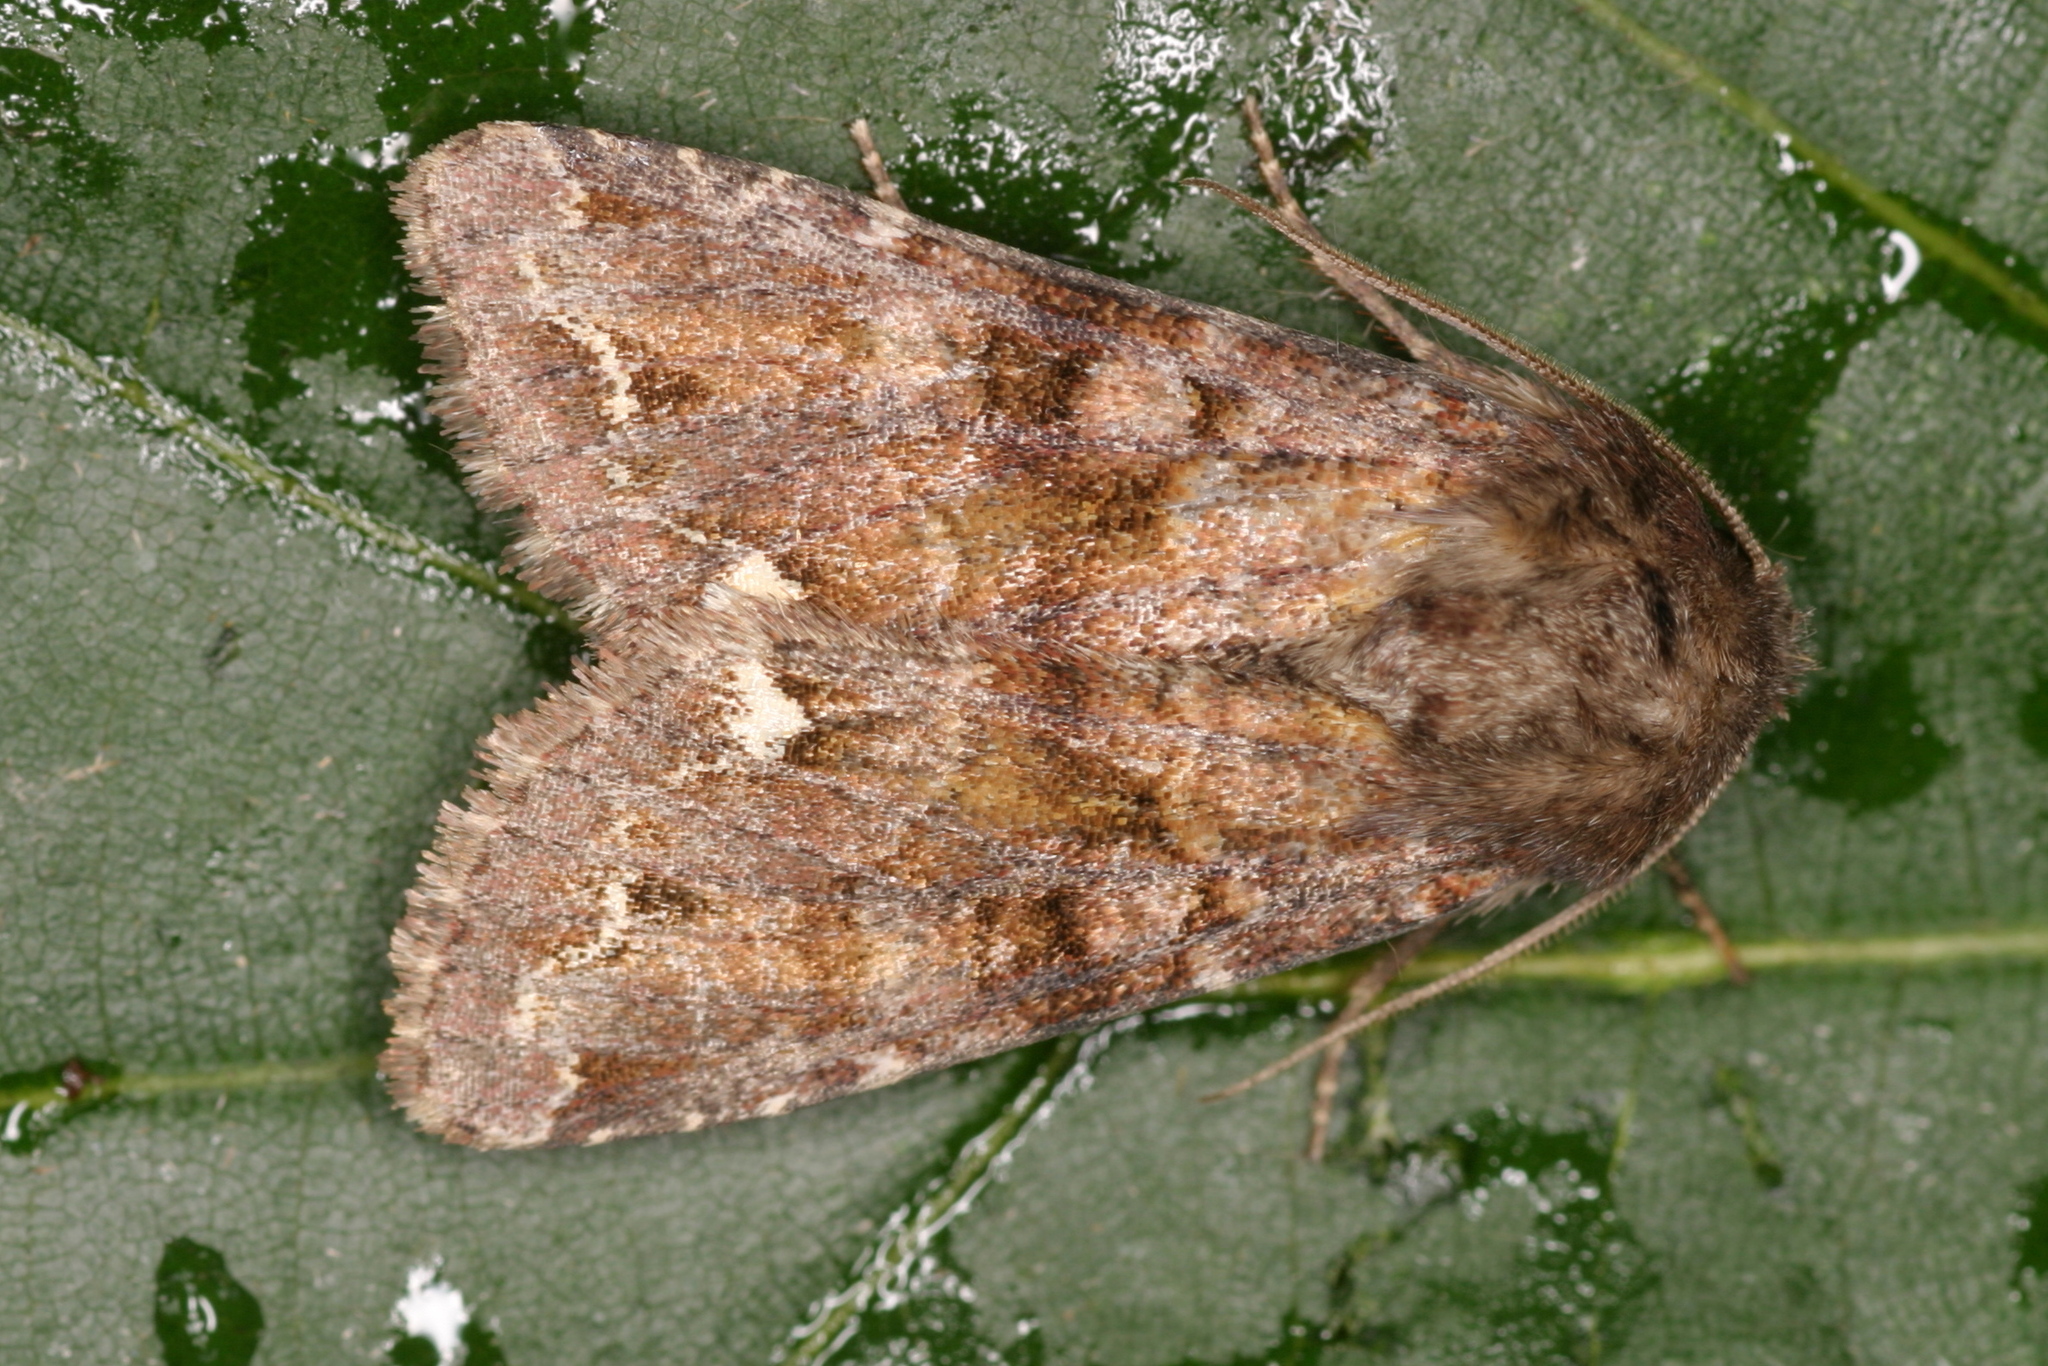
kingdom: Animalia
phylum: Arthropoda
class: Insecta
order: Lepidoptera
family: Noctuidae
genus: Ceramica
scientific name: Ceramica pisi
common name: Broom moth
